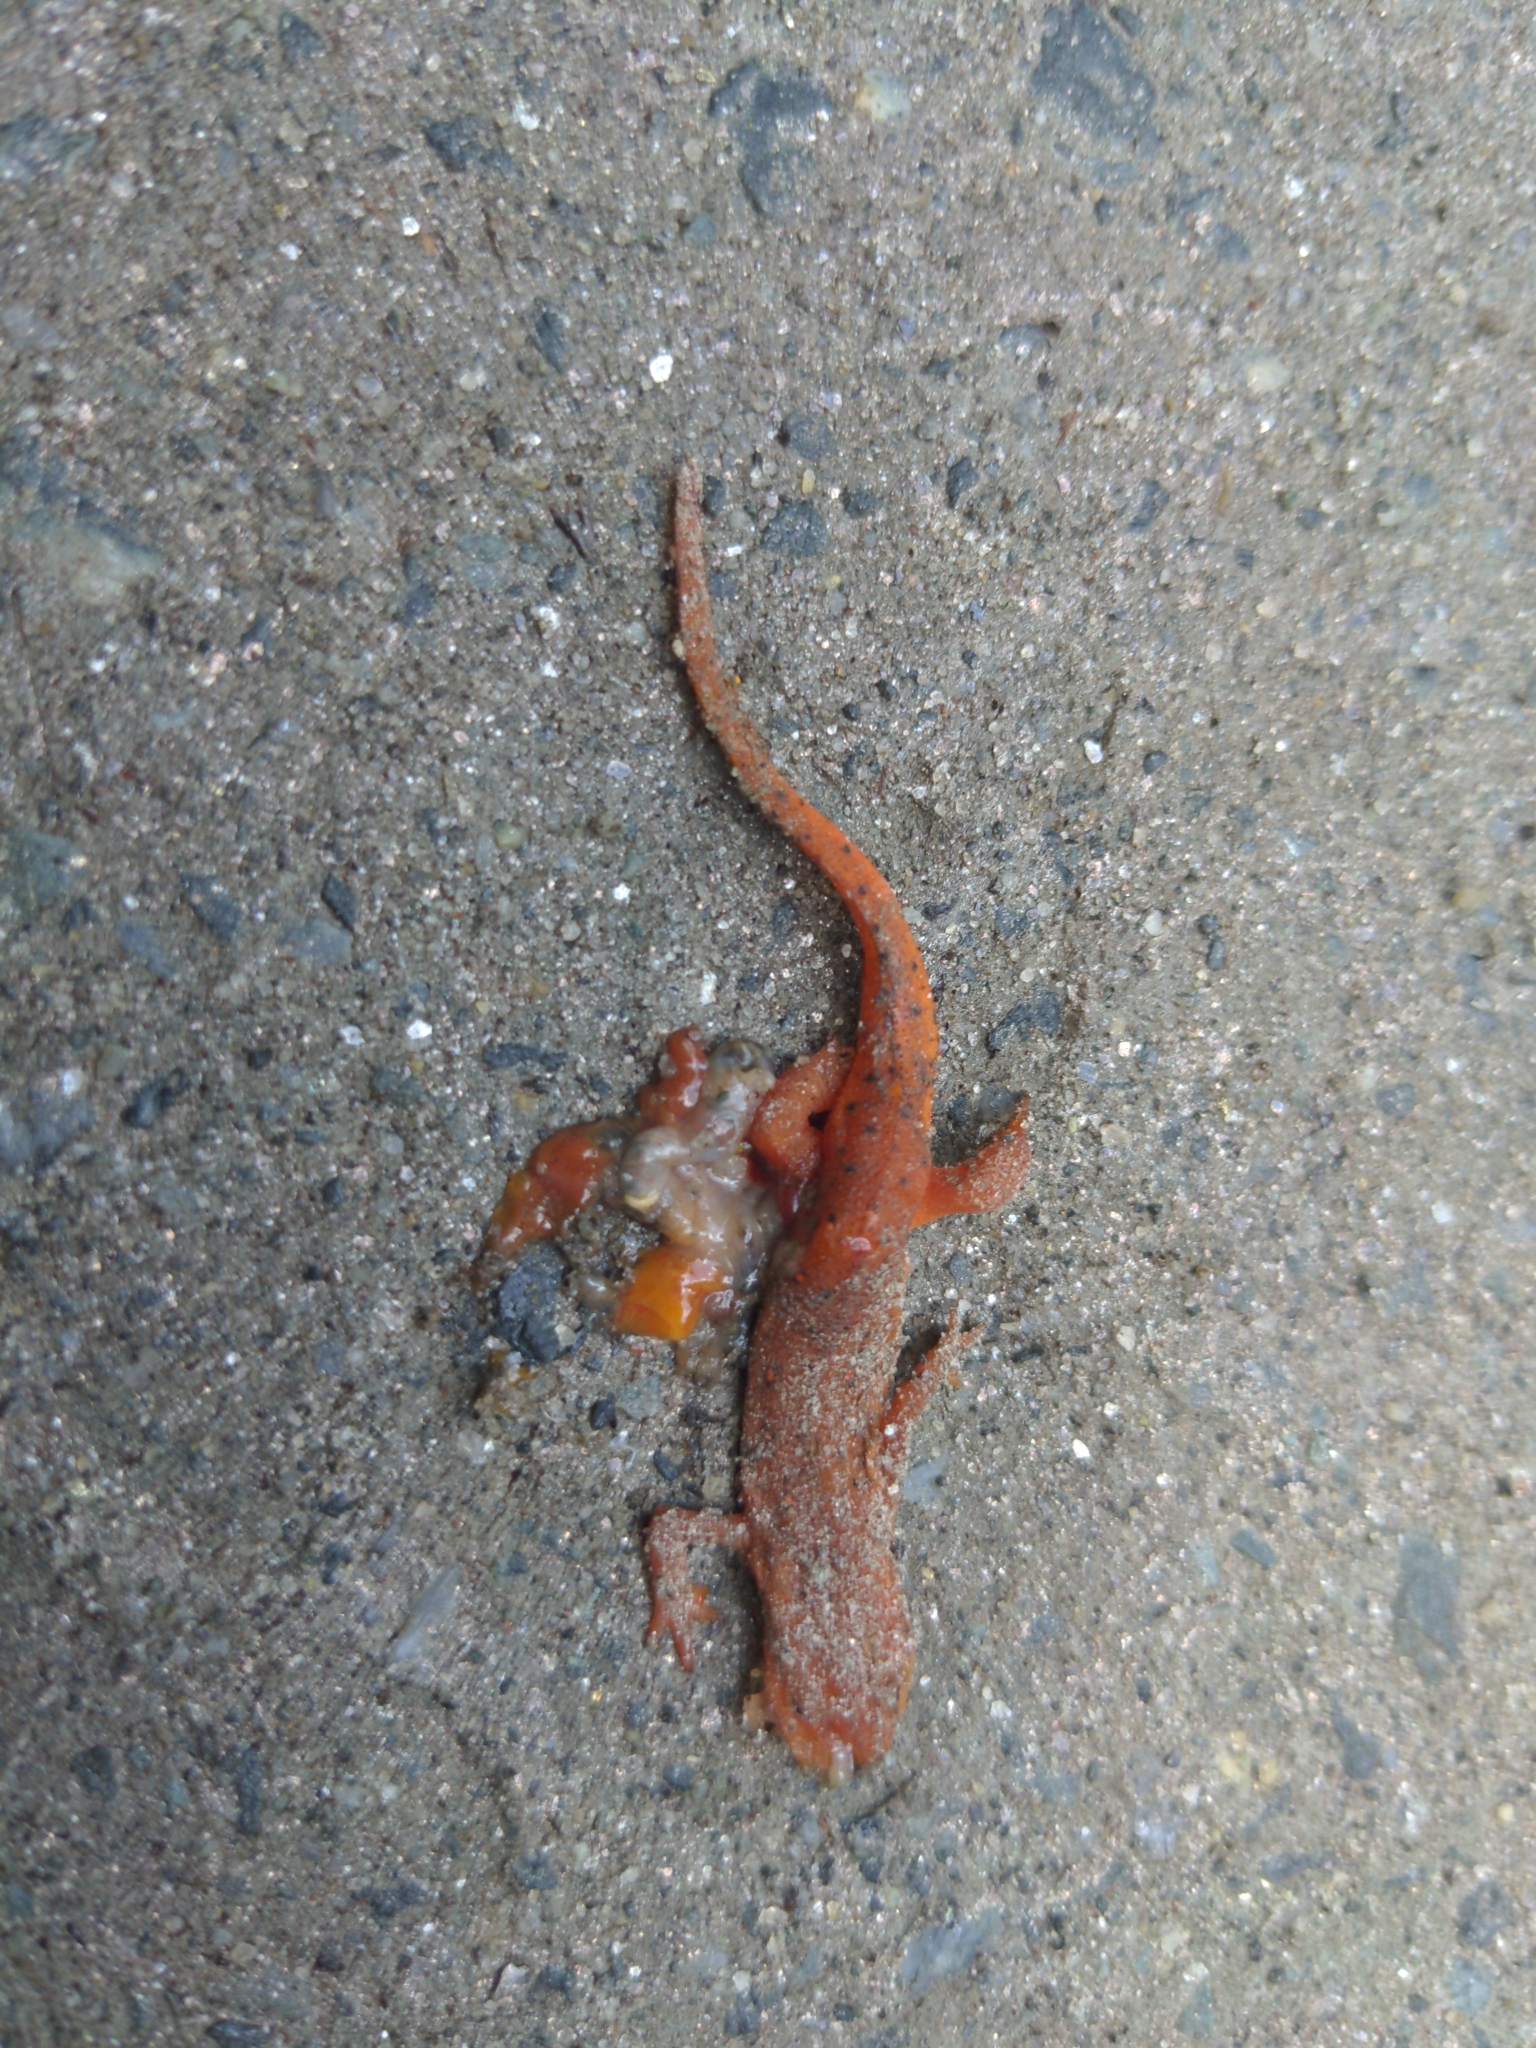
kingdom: Animalia
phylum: Chordata
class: Amphibia
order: Caudata
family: Salamandridae
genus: Notophthalmus
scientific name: Notophthalmus viridescens
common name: Eastern newt
